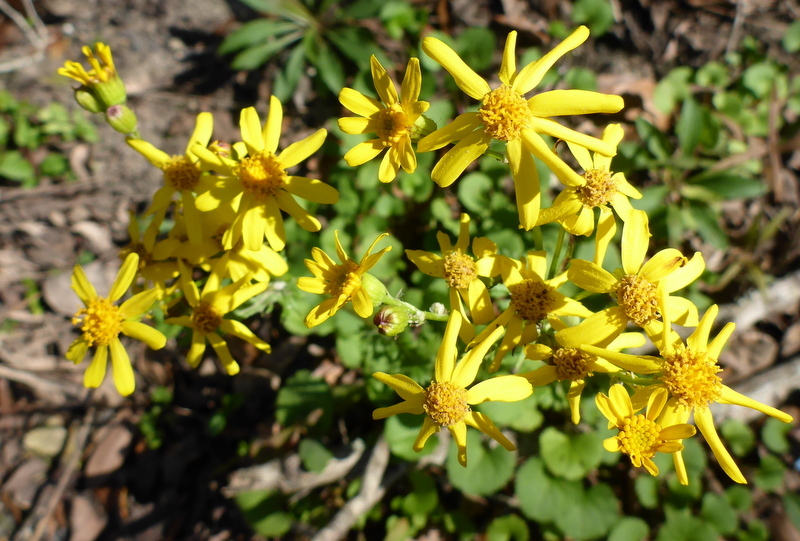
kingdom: Plantae
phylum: Tracheophyta
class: Magnoliopsida
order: Asterales
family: Asteraceae
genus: Packera
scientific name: Packera obovata
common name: Round-leaf ragwort
